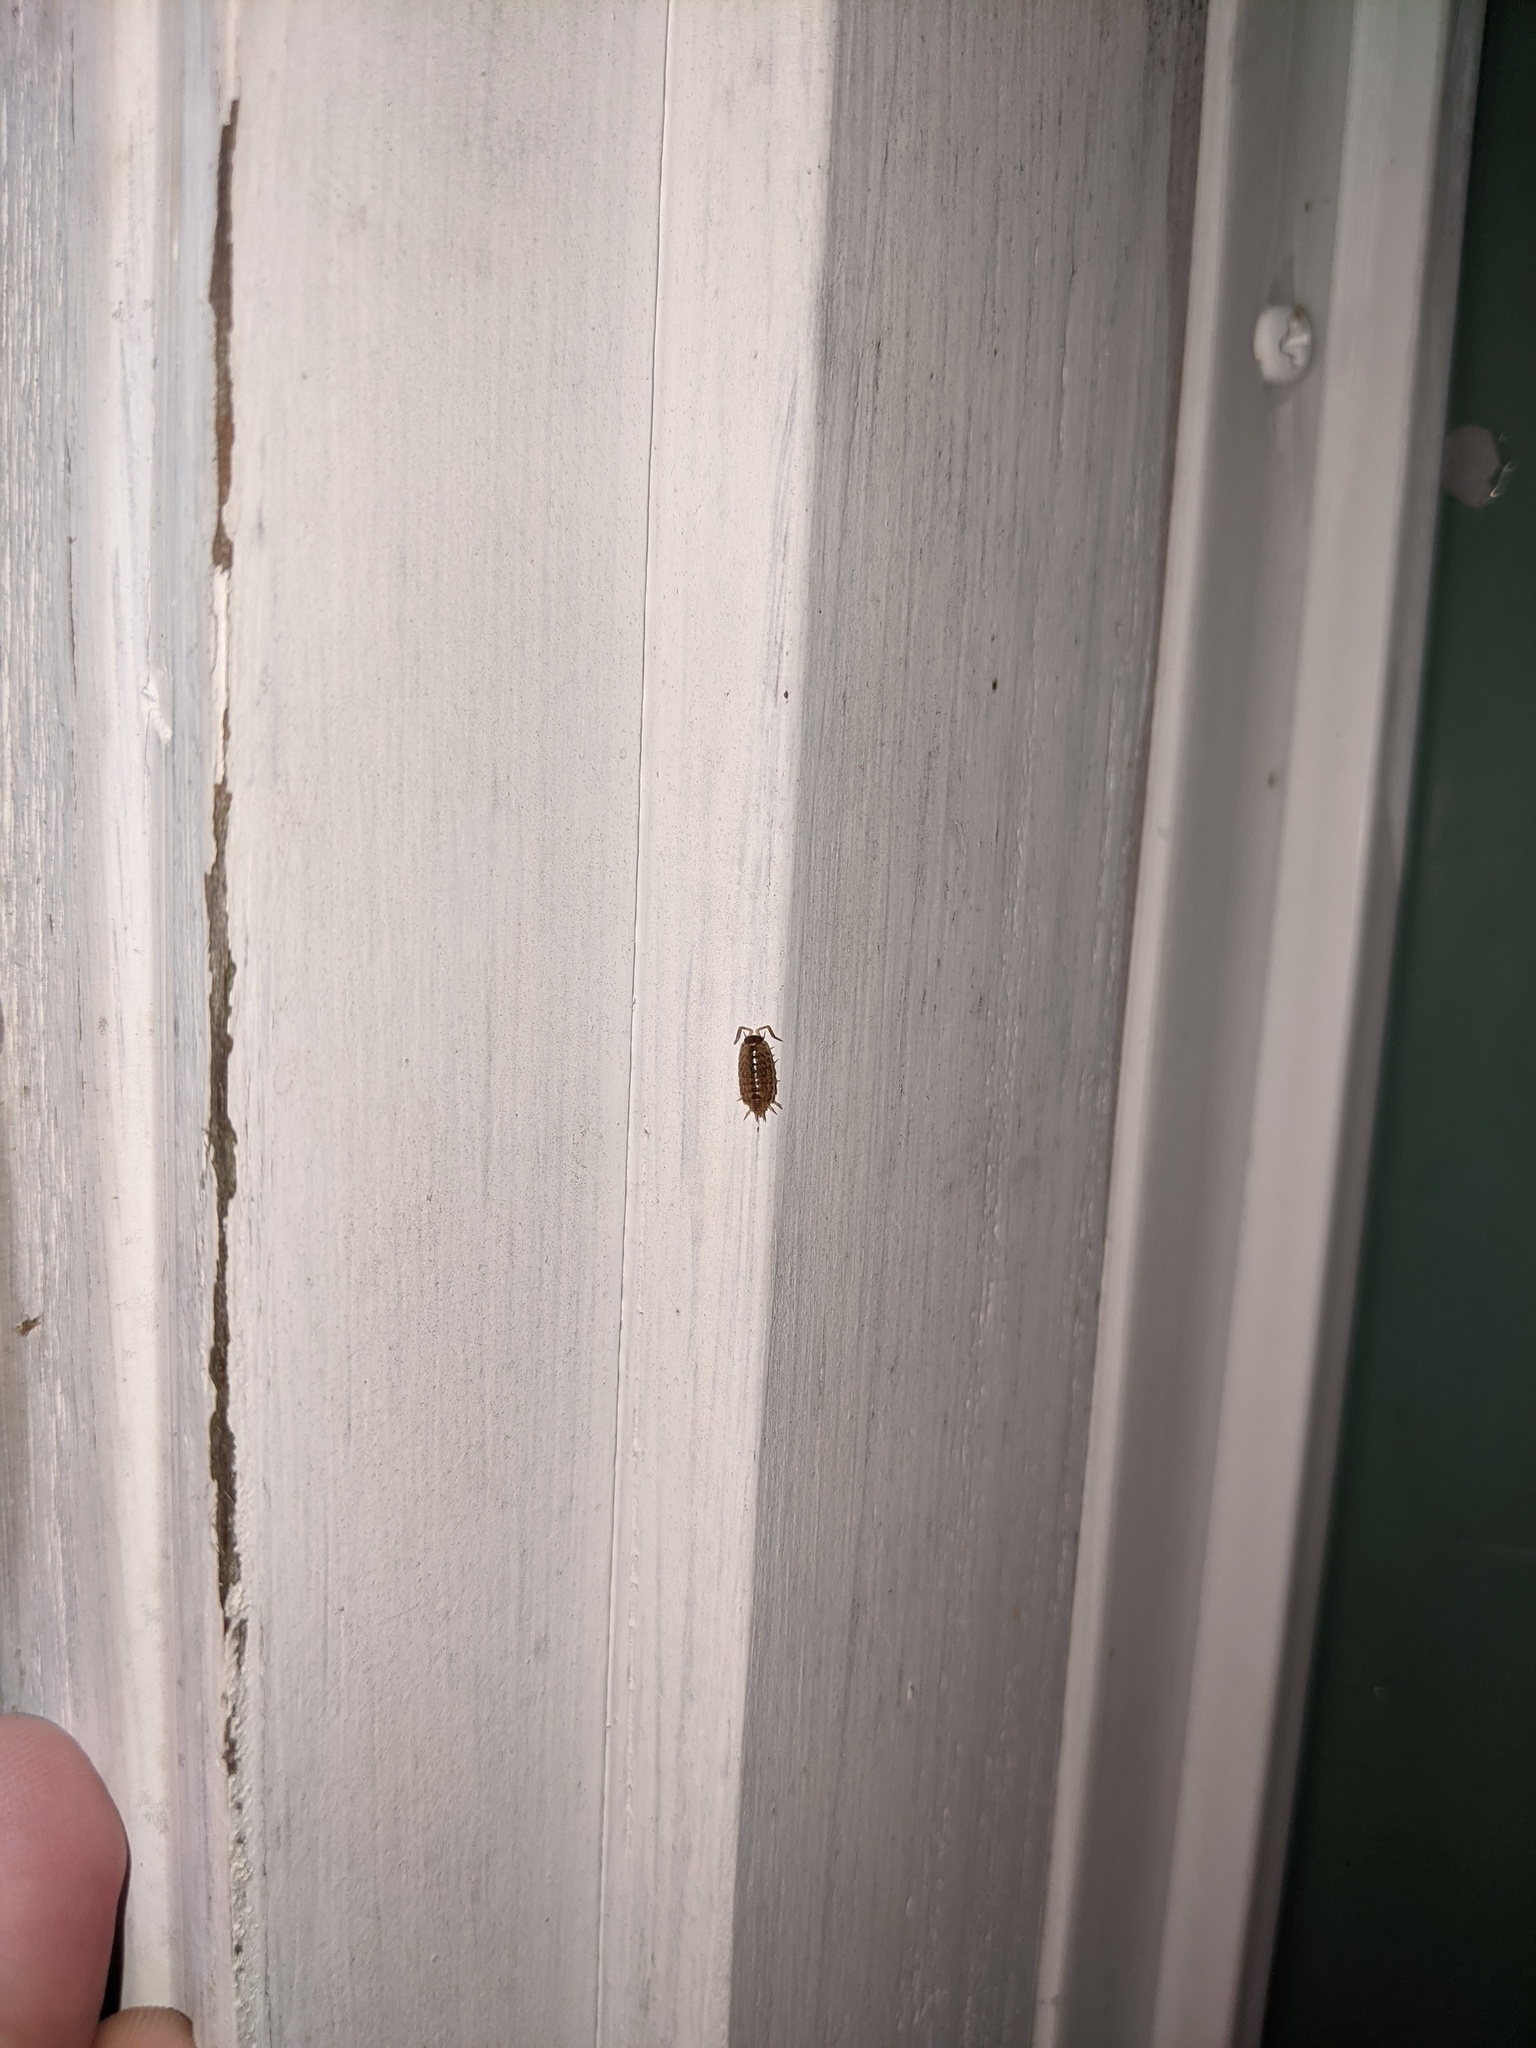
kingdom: Animalia
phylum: Arthropoda
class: Malacostraca
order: Isopoda
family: Philosciidae
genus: Philoscia
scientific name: Philoscia muscorum
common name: Common striped woodlouse
